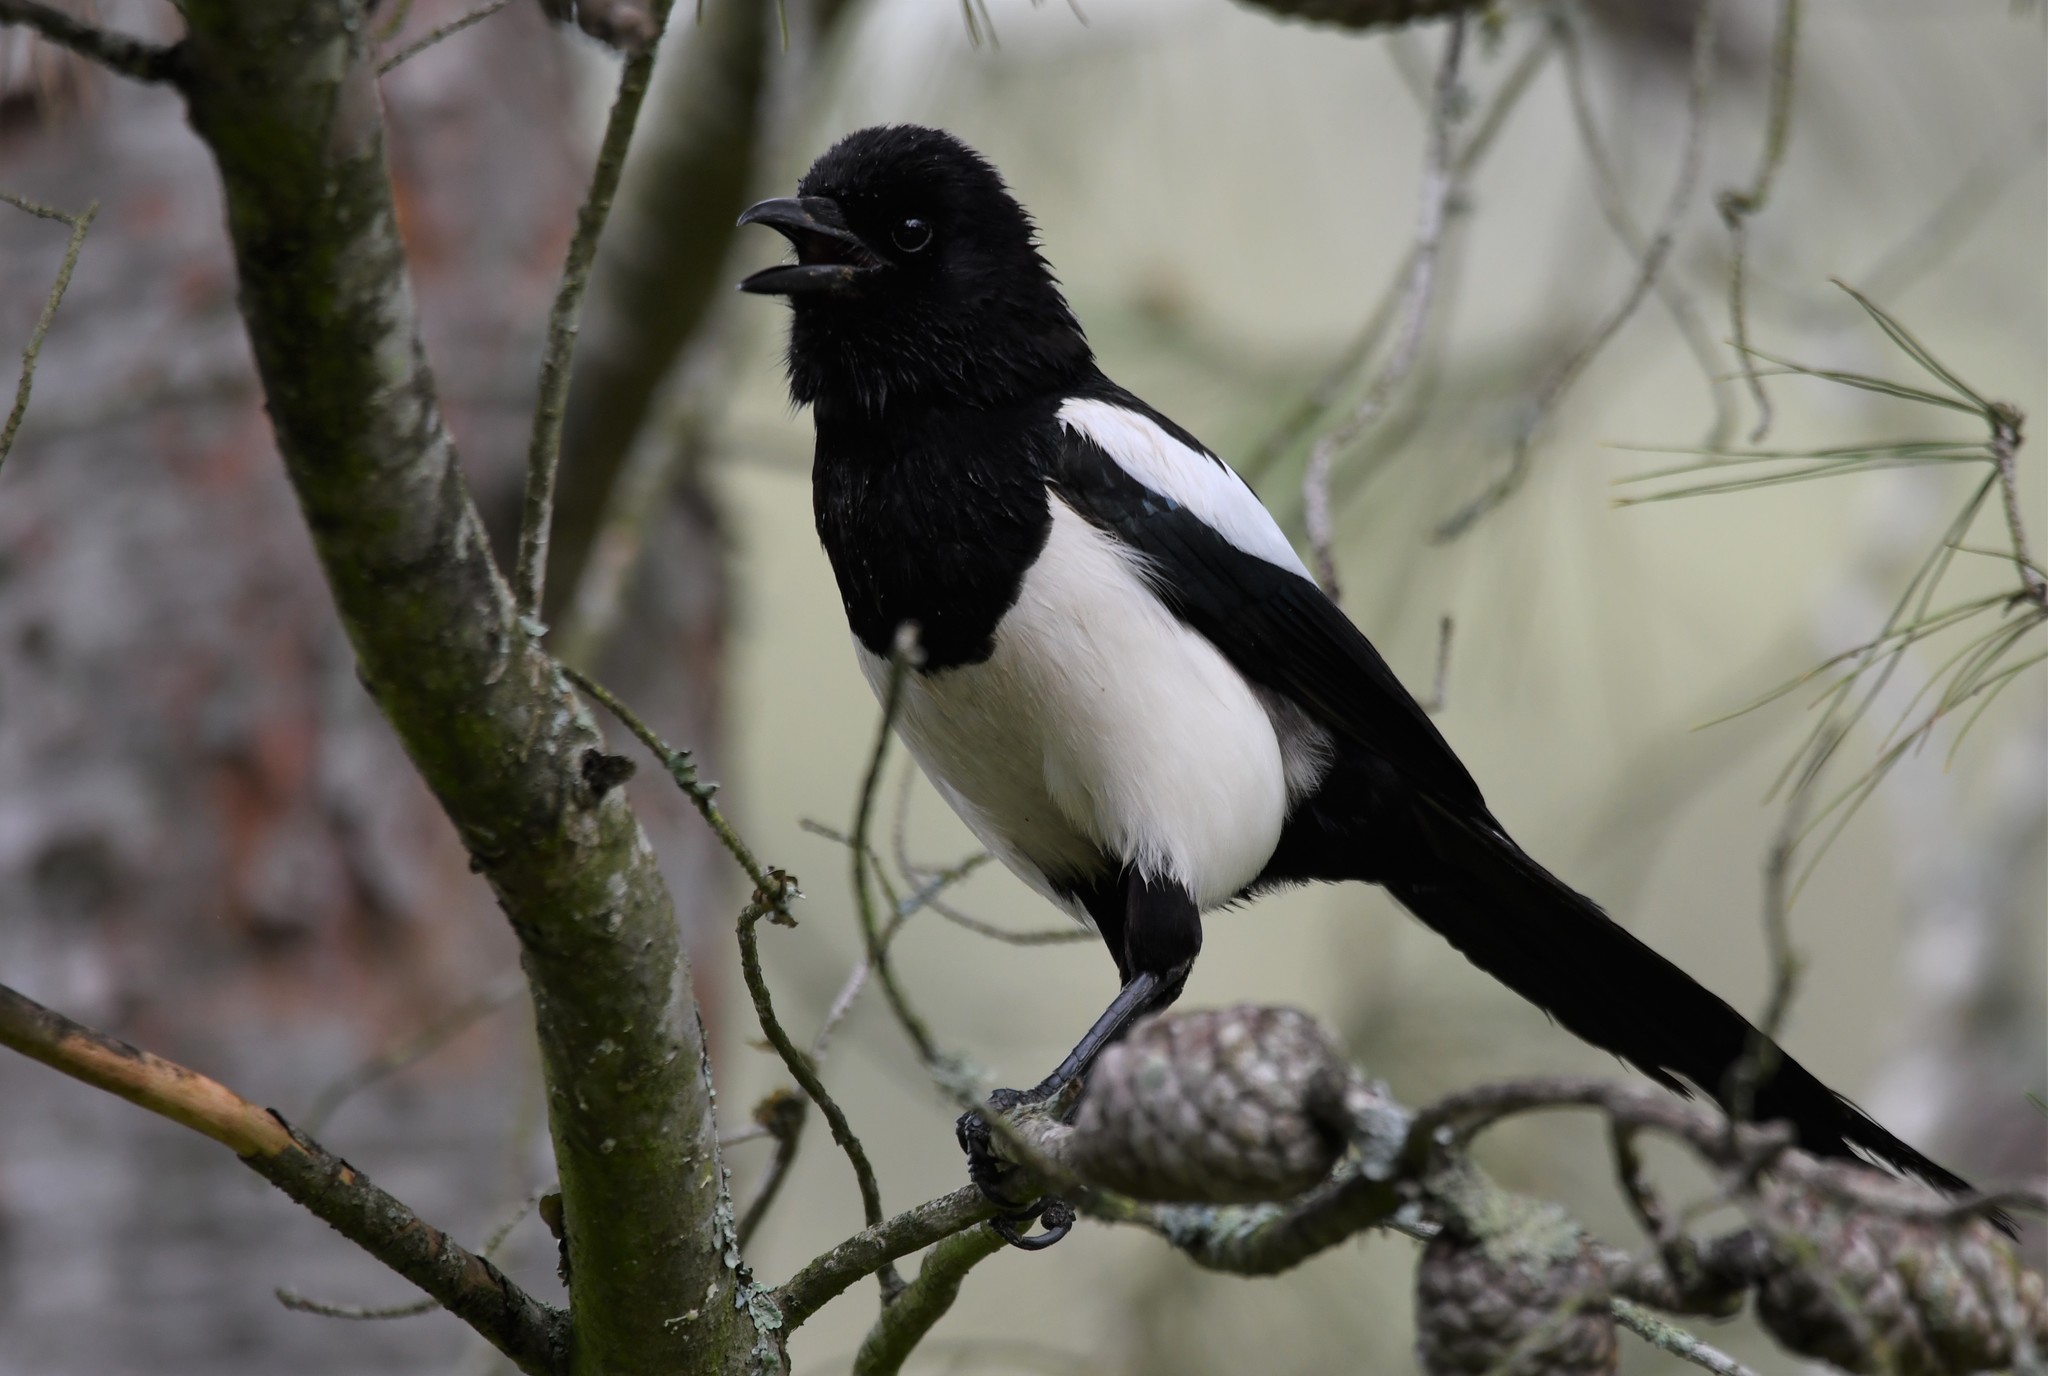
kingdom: Animalia
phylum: Chordata
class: Aves
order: Passeriformes
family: Corvidae
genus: Pica
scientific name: Pica pica
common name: Eurasian magpie
